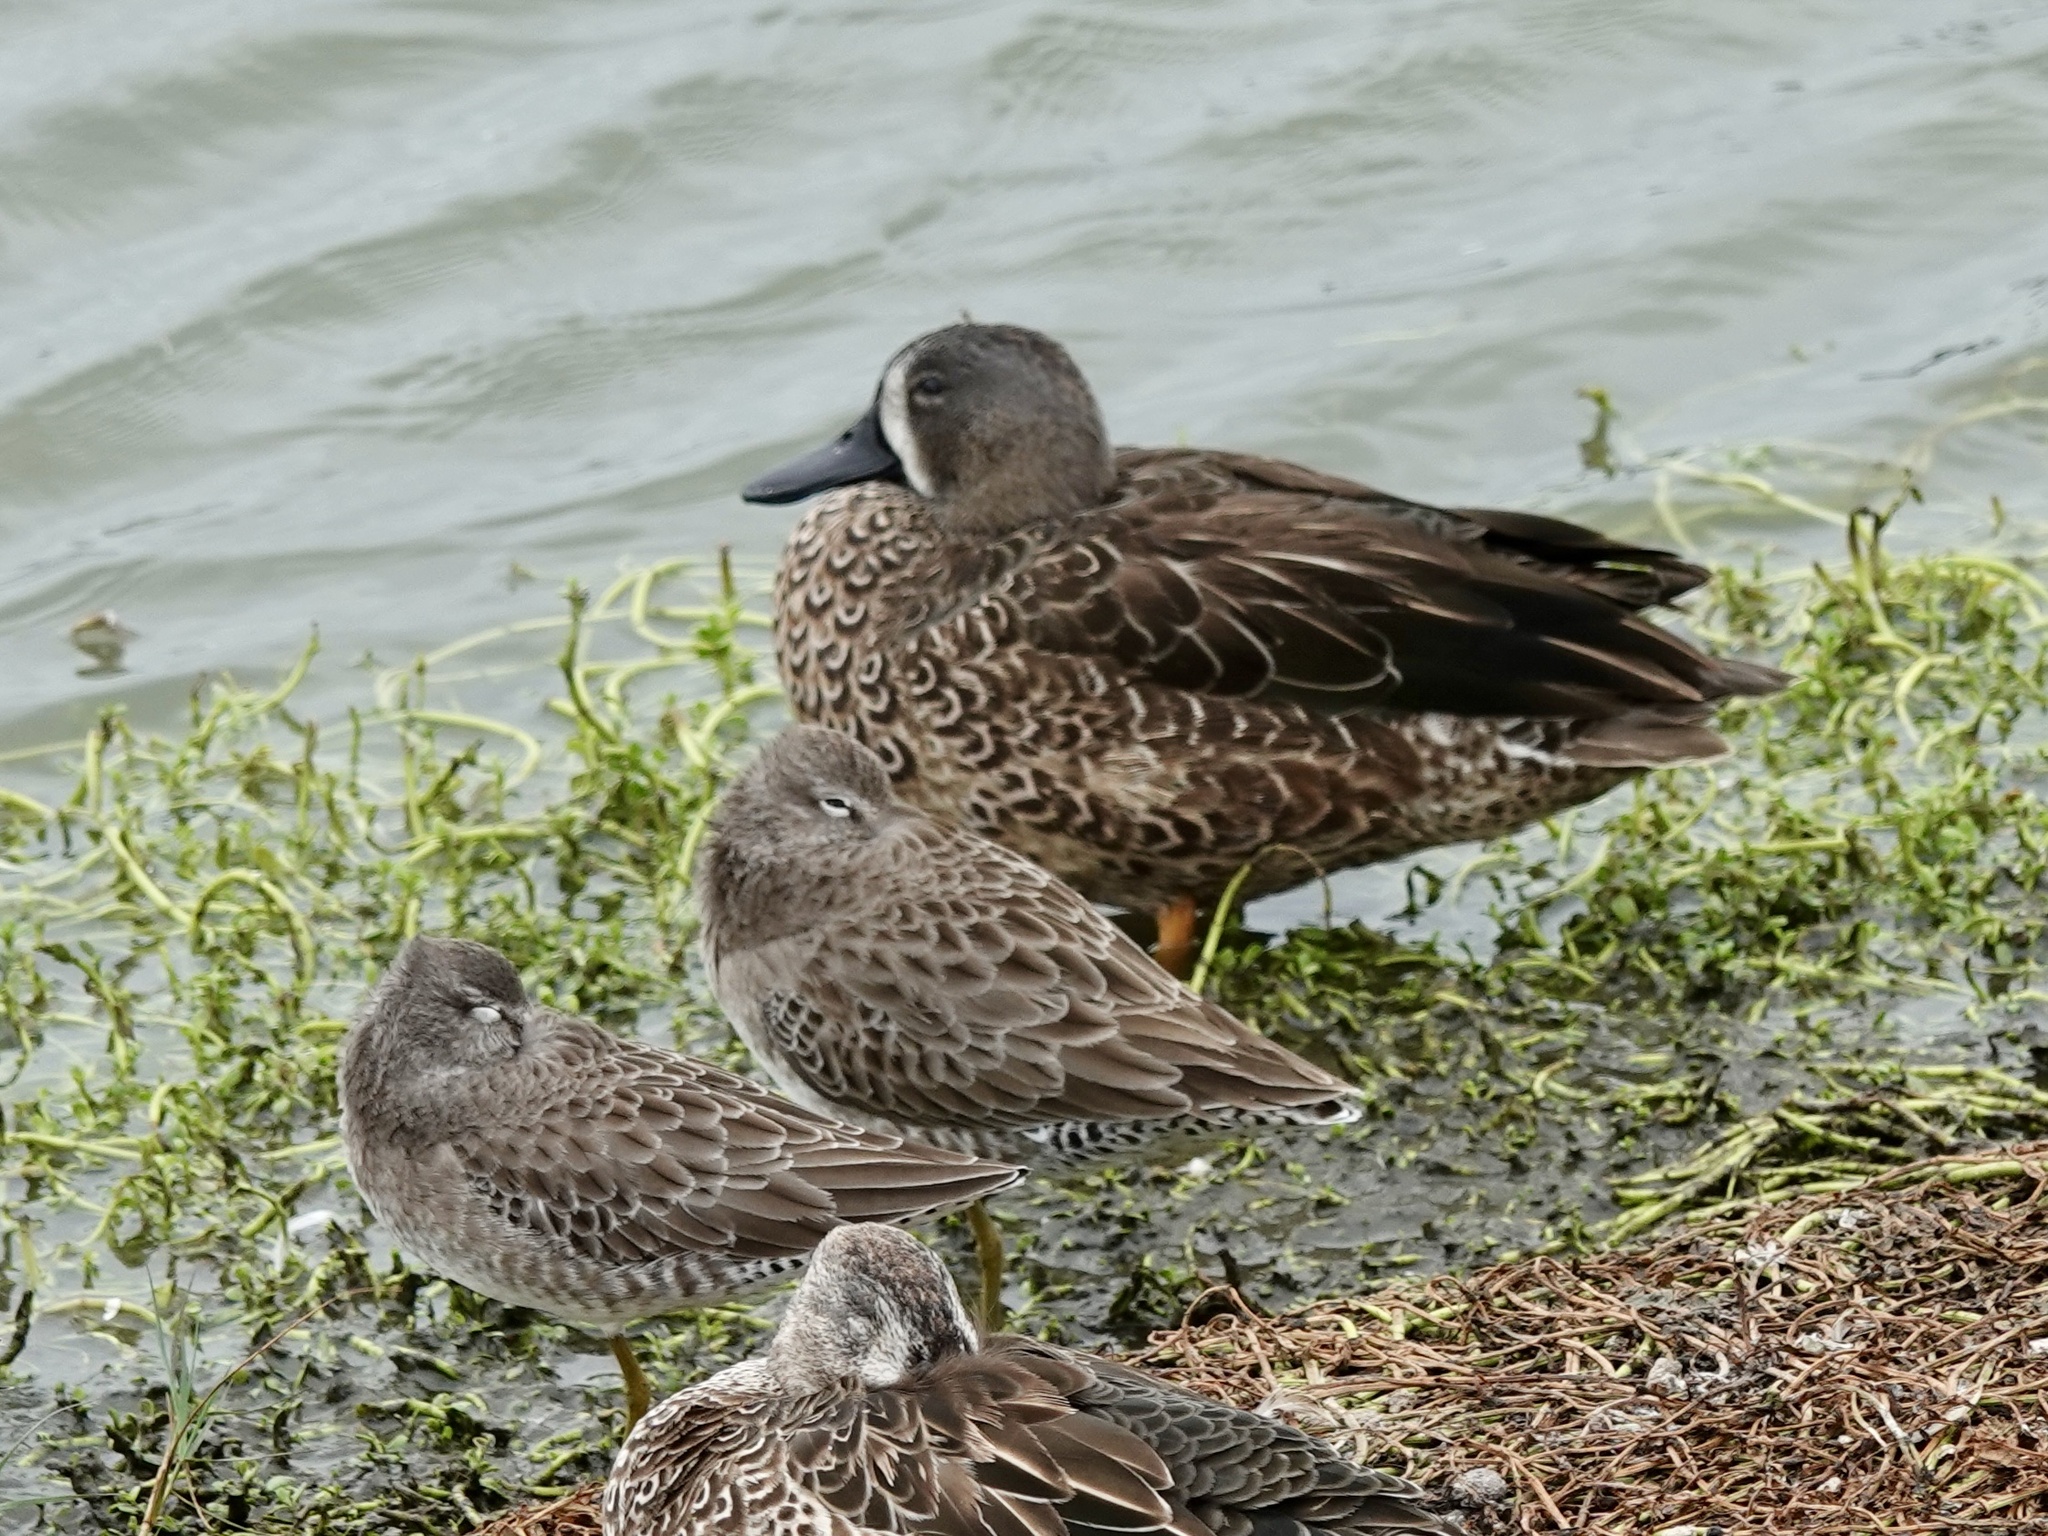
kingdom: Animalia
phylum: Chordata
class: Aves
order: Anseriformes
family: Anatidae
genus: Spatula
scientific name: Spatula discors
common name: Blue-winged teal
